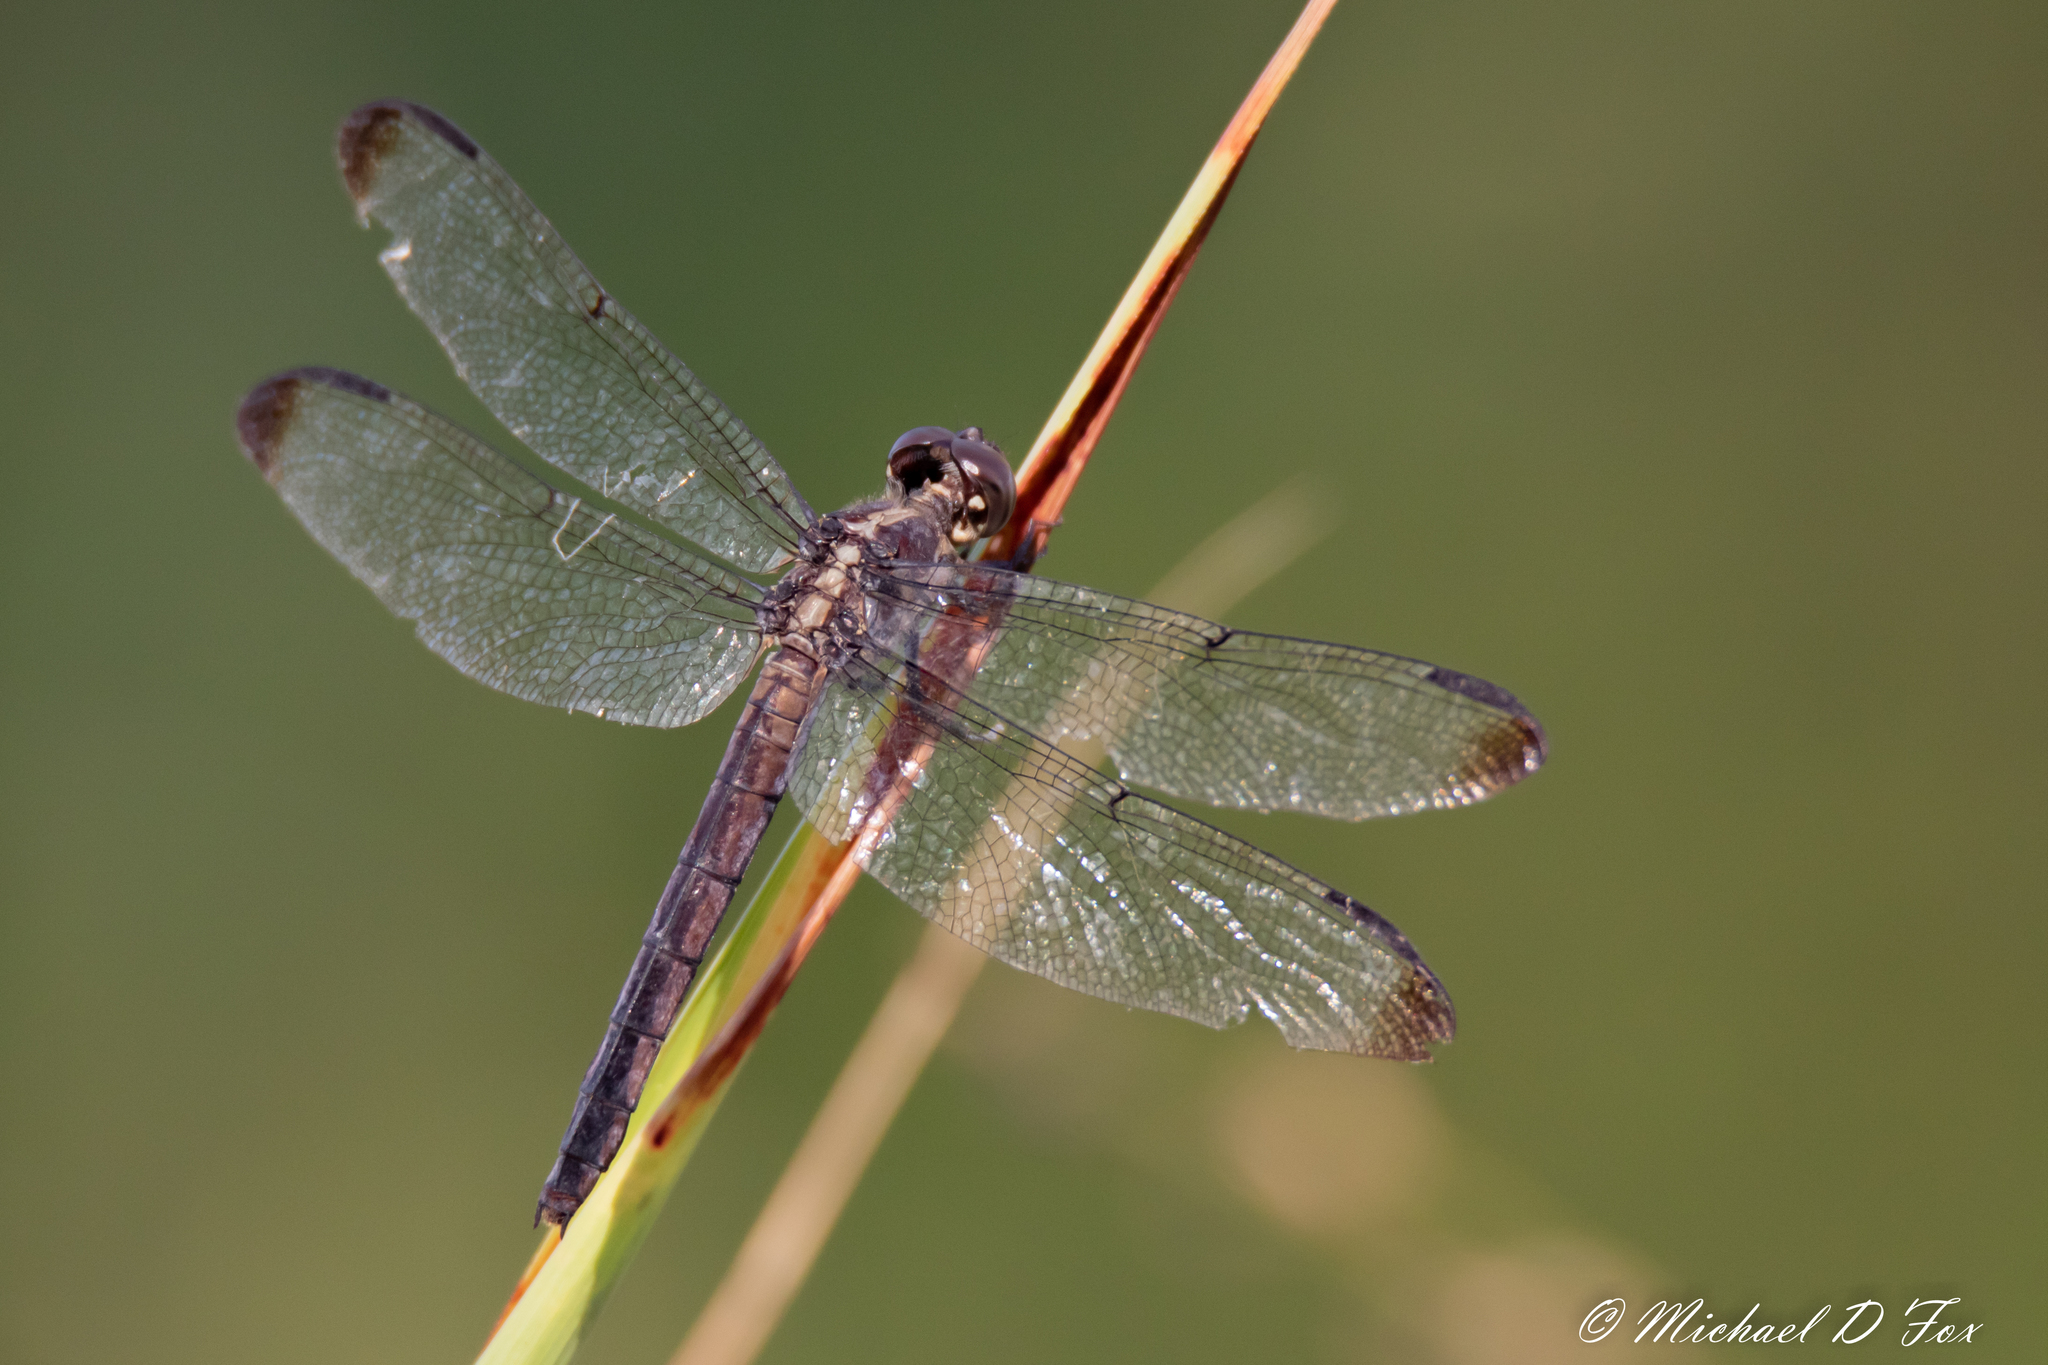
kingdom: Animalia
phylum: Arthropoda
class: Insecta
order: Odonata
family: Libellulidae
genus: Libellula
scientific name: Libellula incesta
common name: Slaty skimmer
